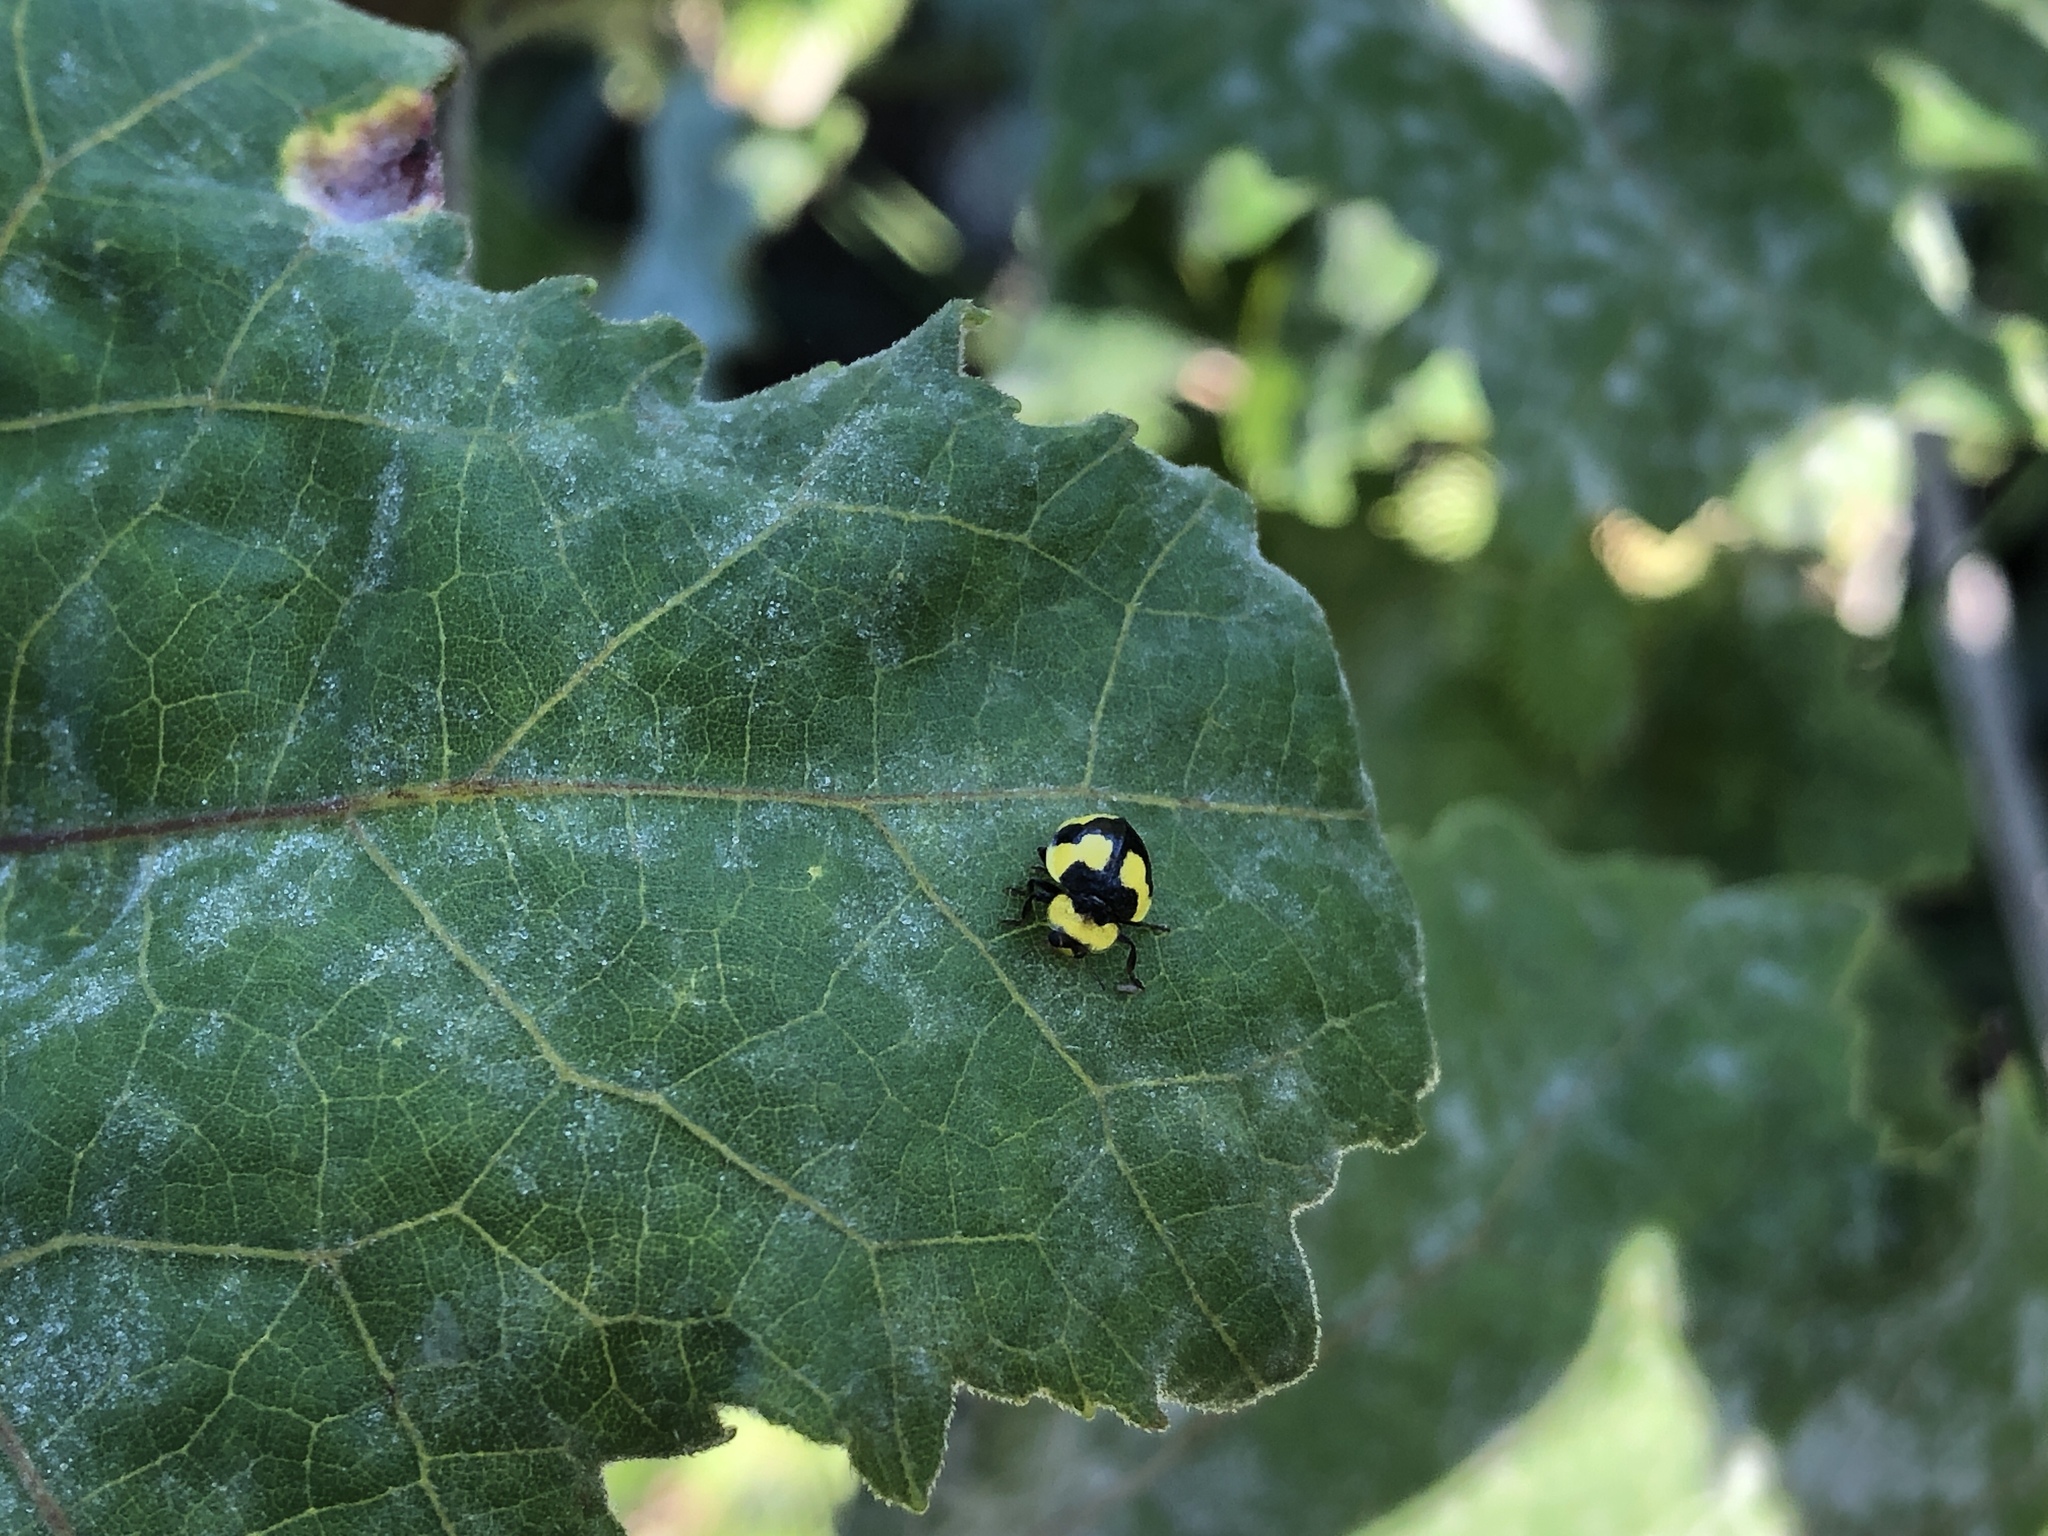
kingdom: Animalia
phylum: Arthropoda
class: Insecta
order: Coleoptera
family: Coccinellidae
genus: Illeis
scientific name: Illeis galbula
